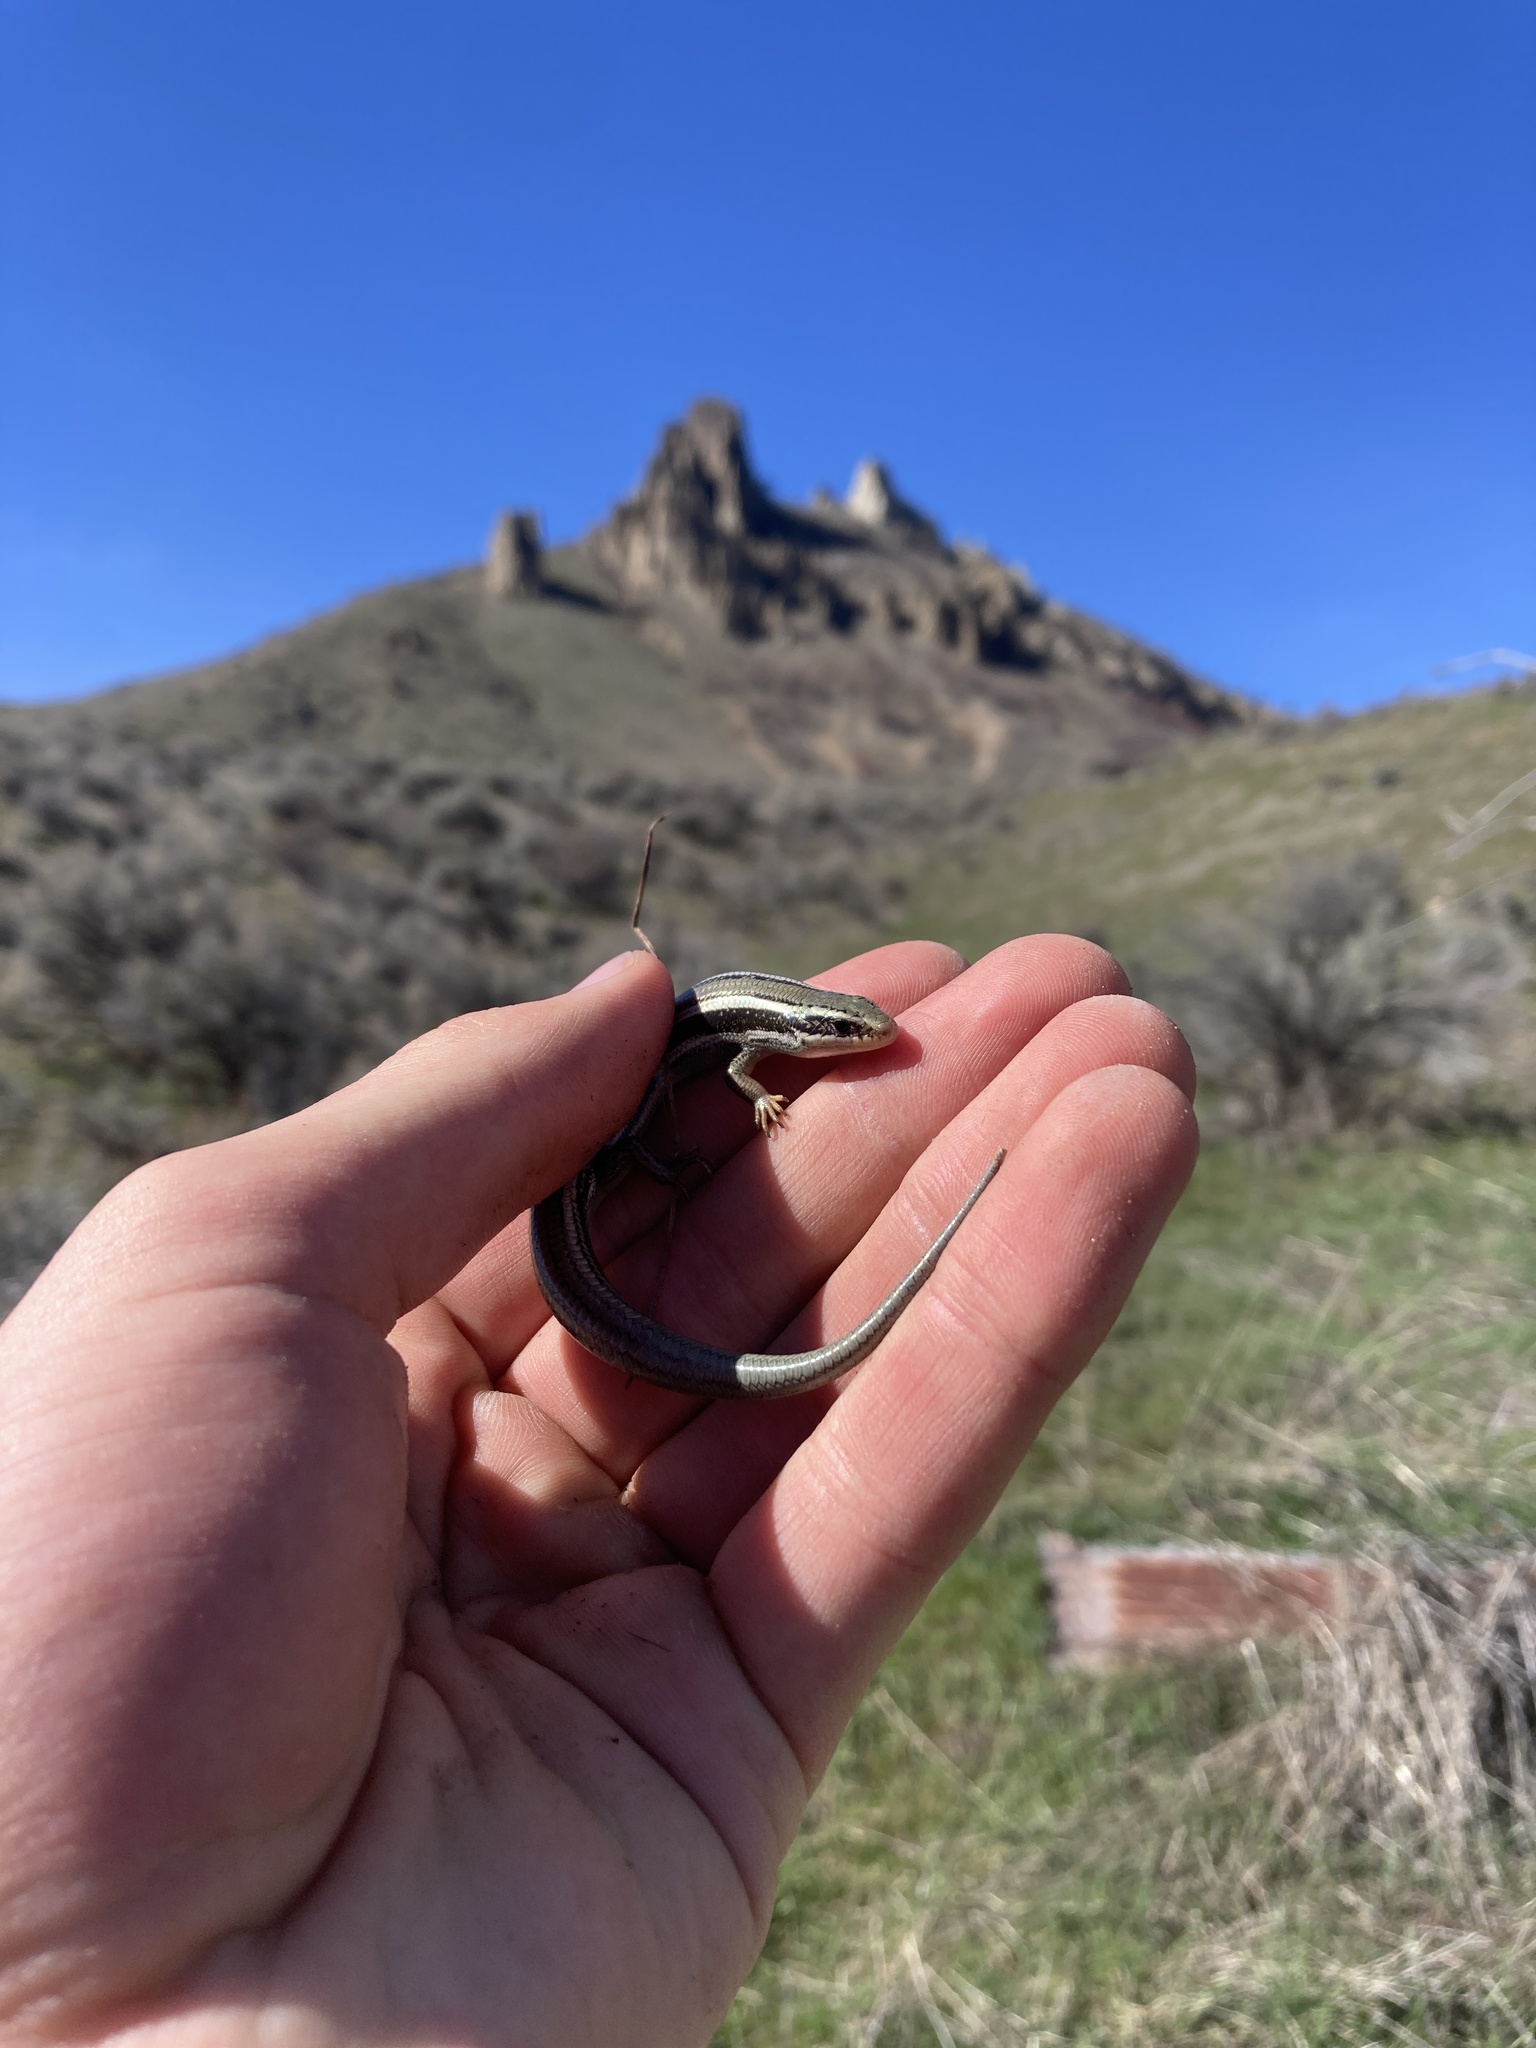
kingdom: Animalia
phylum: Chordata
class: Squamata
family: Scincidae
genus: Plestiodon
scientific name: Plestiodon skiltonianus
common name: Coronado island skink [interparietalis]
